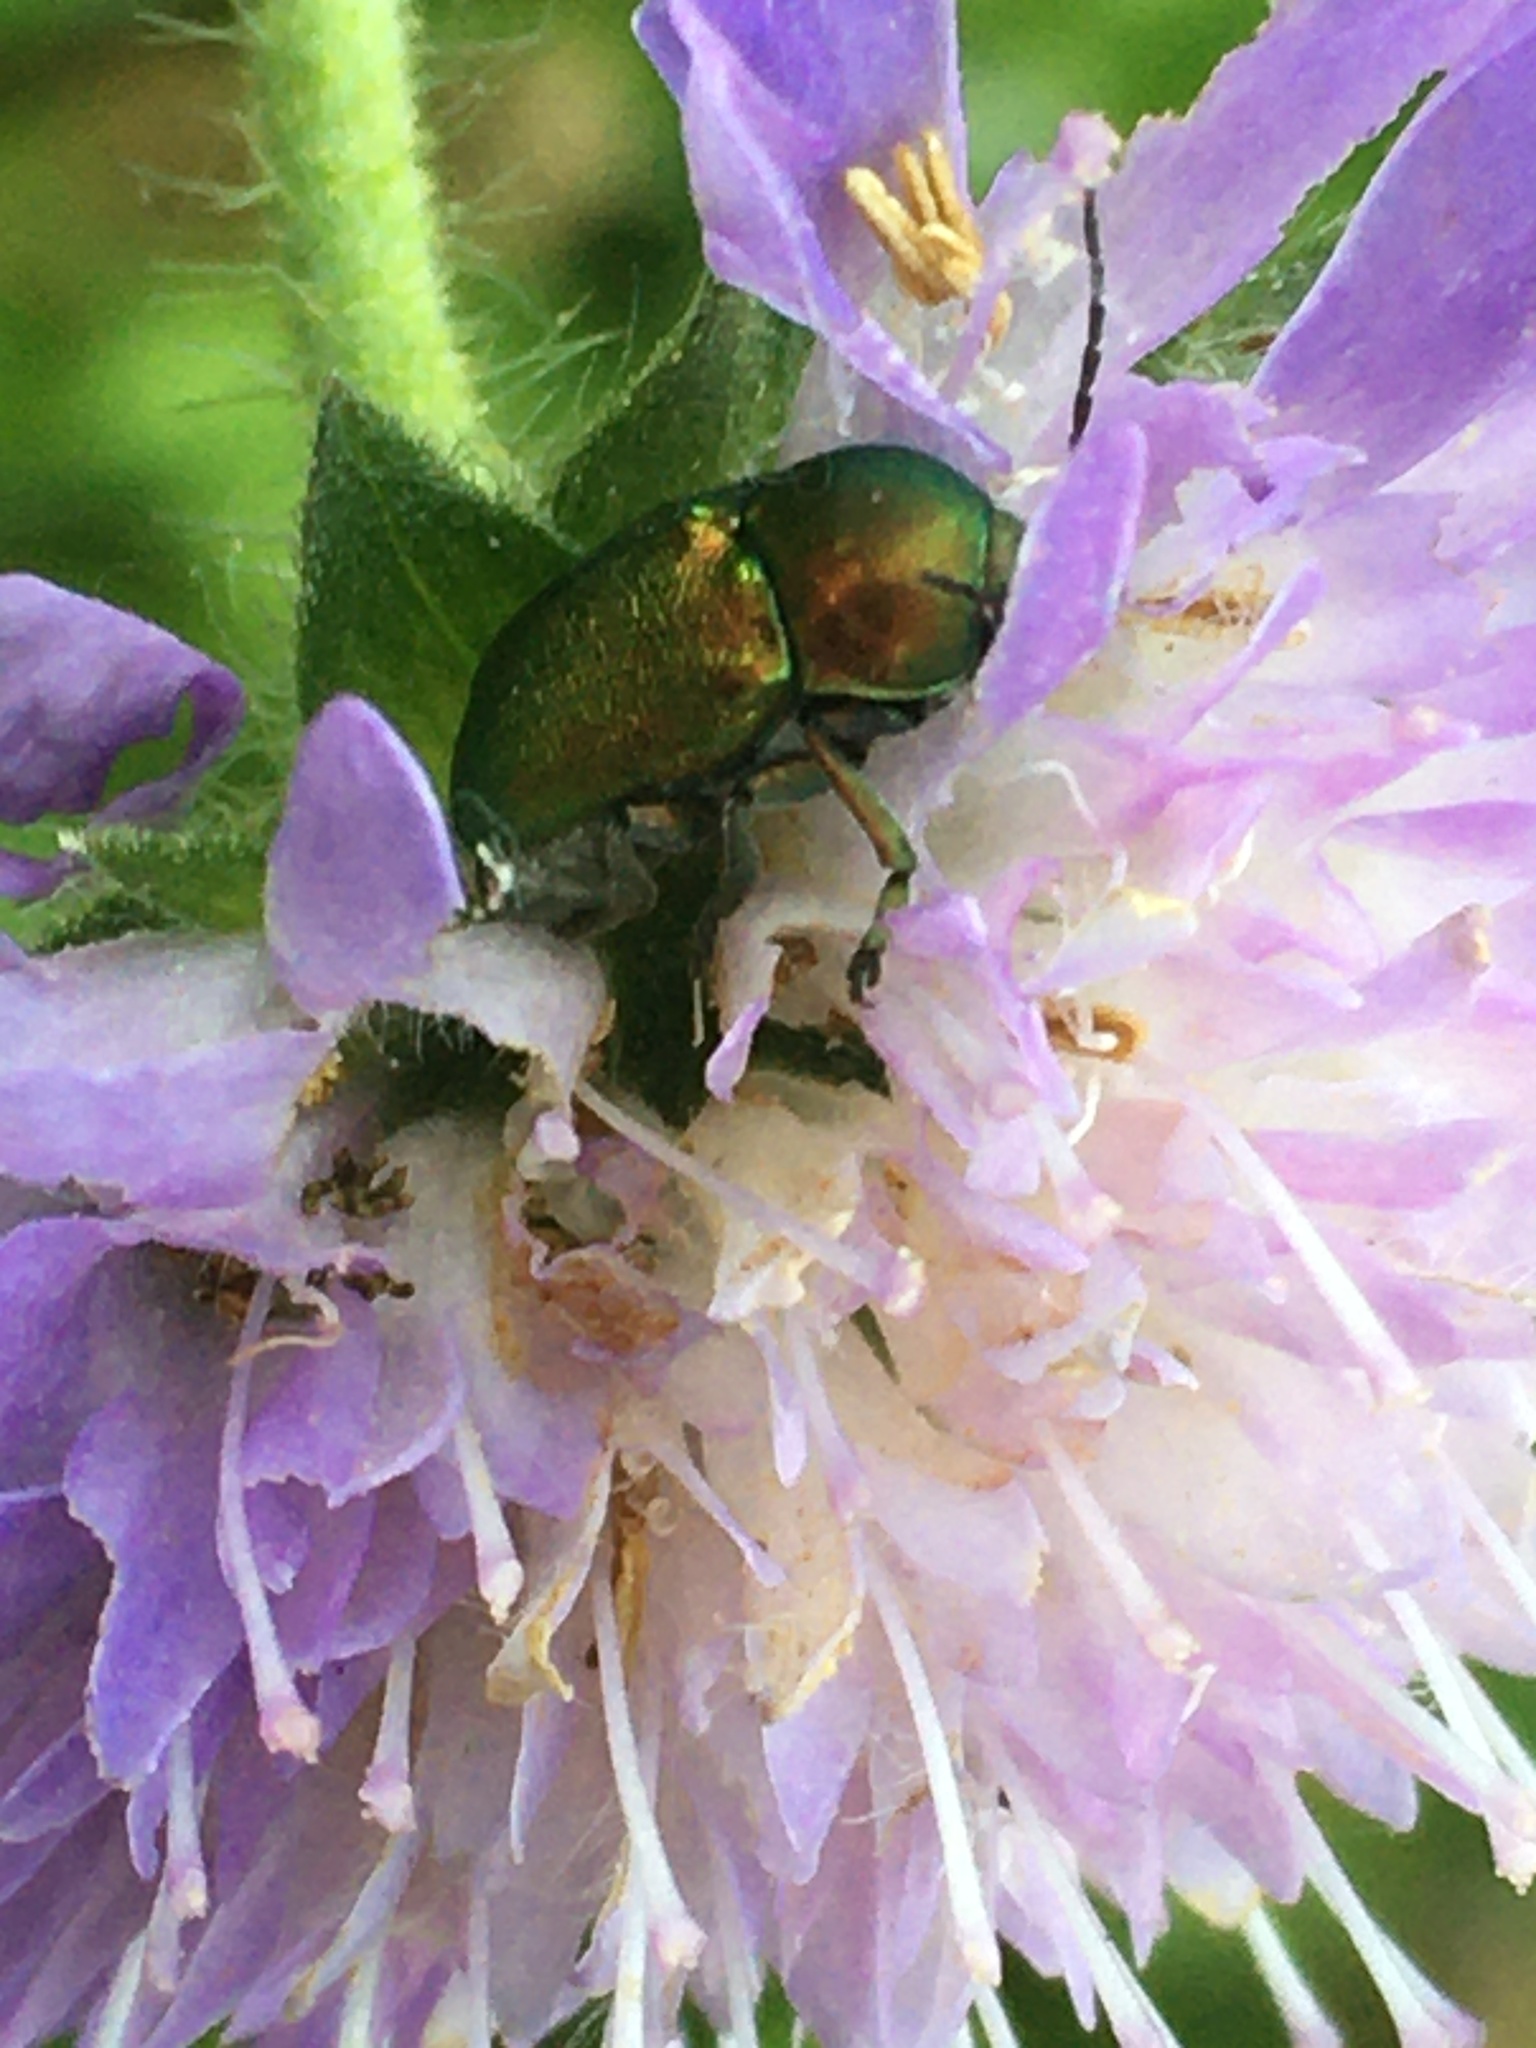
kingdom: Animalia
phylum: Arthropoda
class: Insecta
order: Coleoptera
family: Chrysomelidae
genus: Cryptocephalus
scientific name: Cryptocephalus
